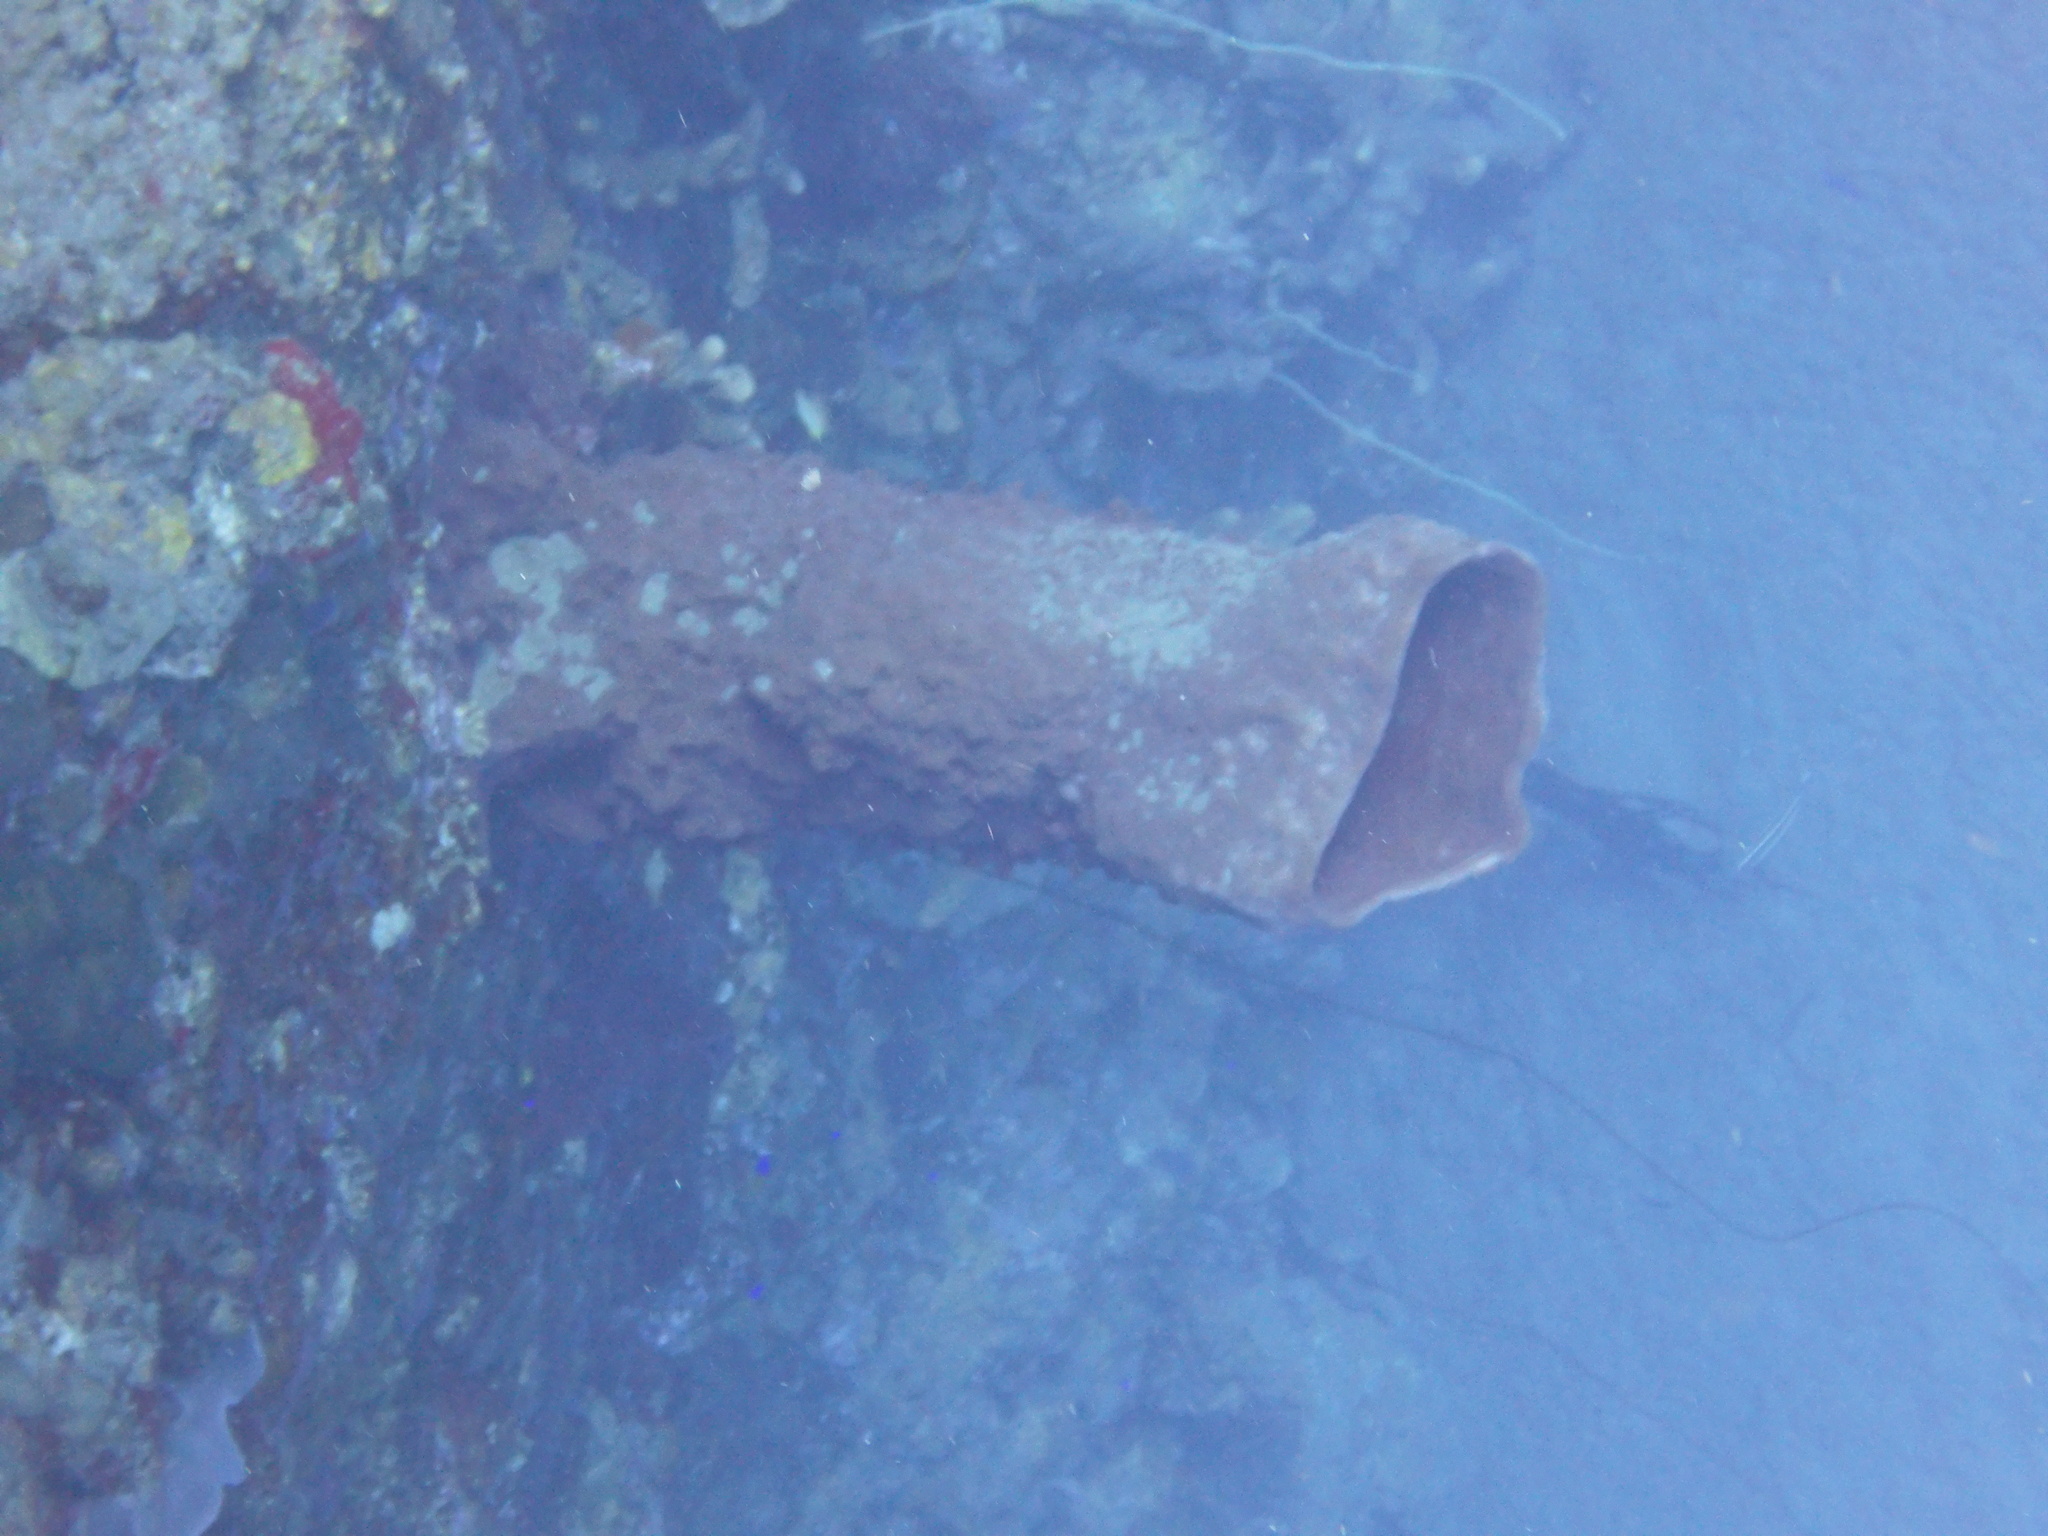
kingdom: Animalia
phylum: Porifera
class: Demospongiae
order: Haplosclerida
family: Petrosiidae
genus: Xestospongia
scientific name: Xestospongia muta
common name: Giant barrel sponge
